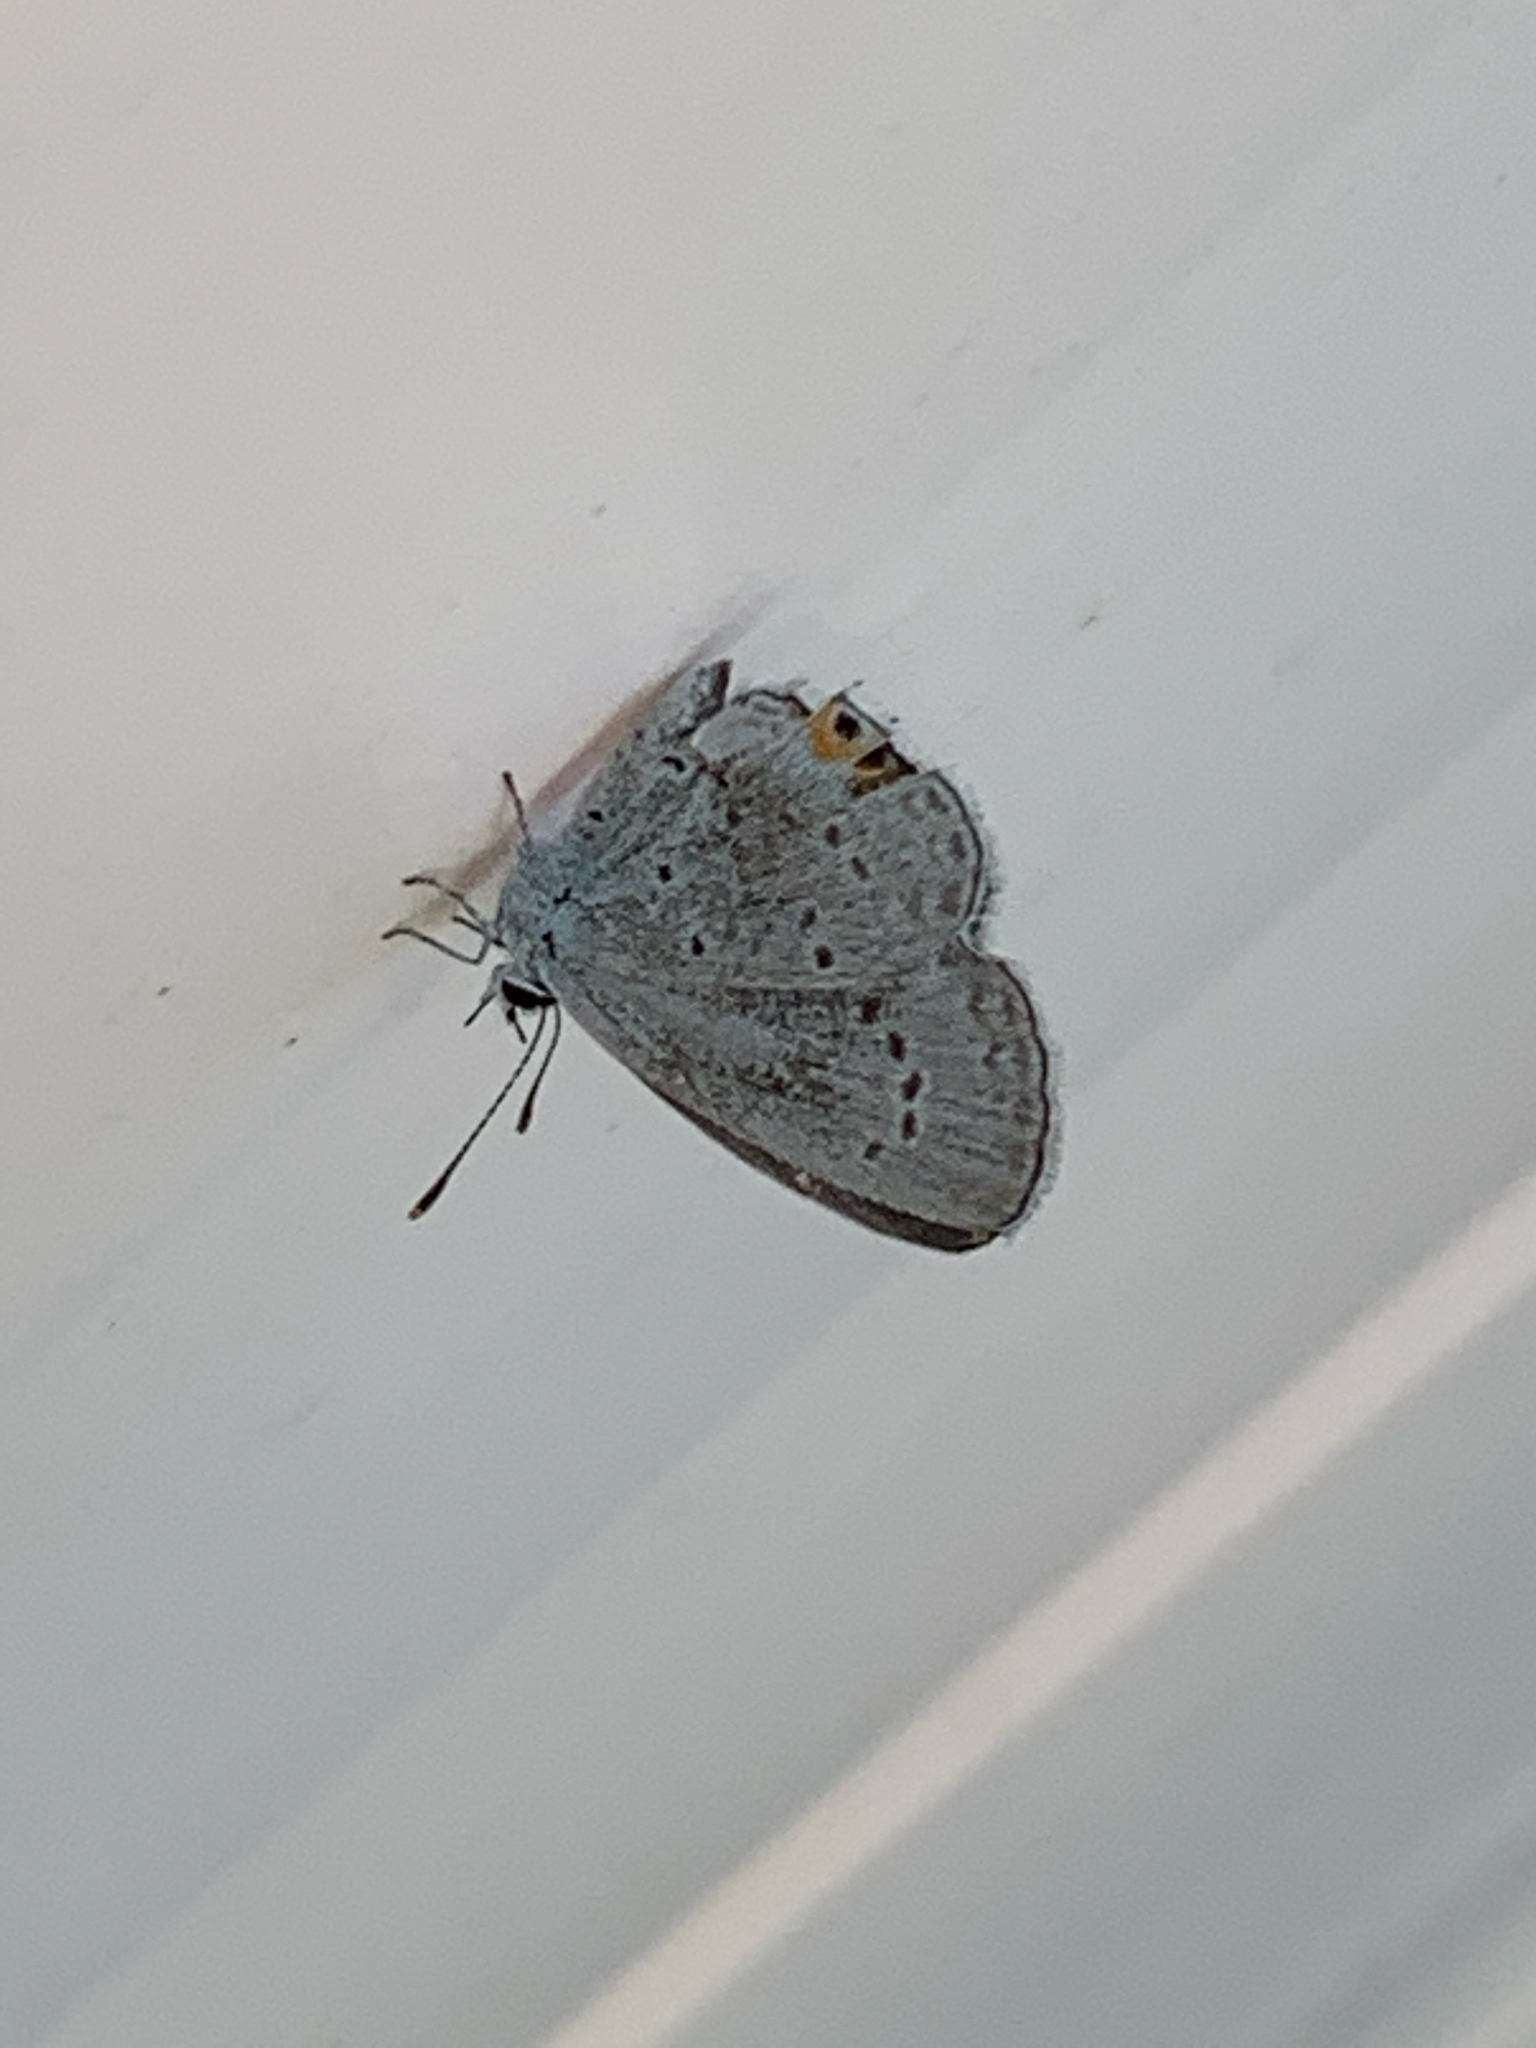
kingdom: Animalia
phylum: Arthropoda
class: Insecta
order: Lepidoptera
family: Lycaenidae
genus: Elkalyce
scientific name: Elkalyce comyntas
